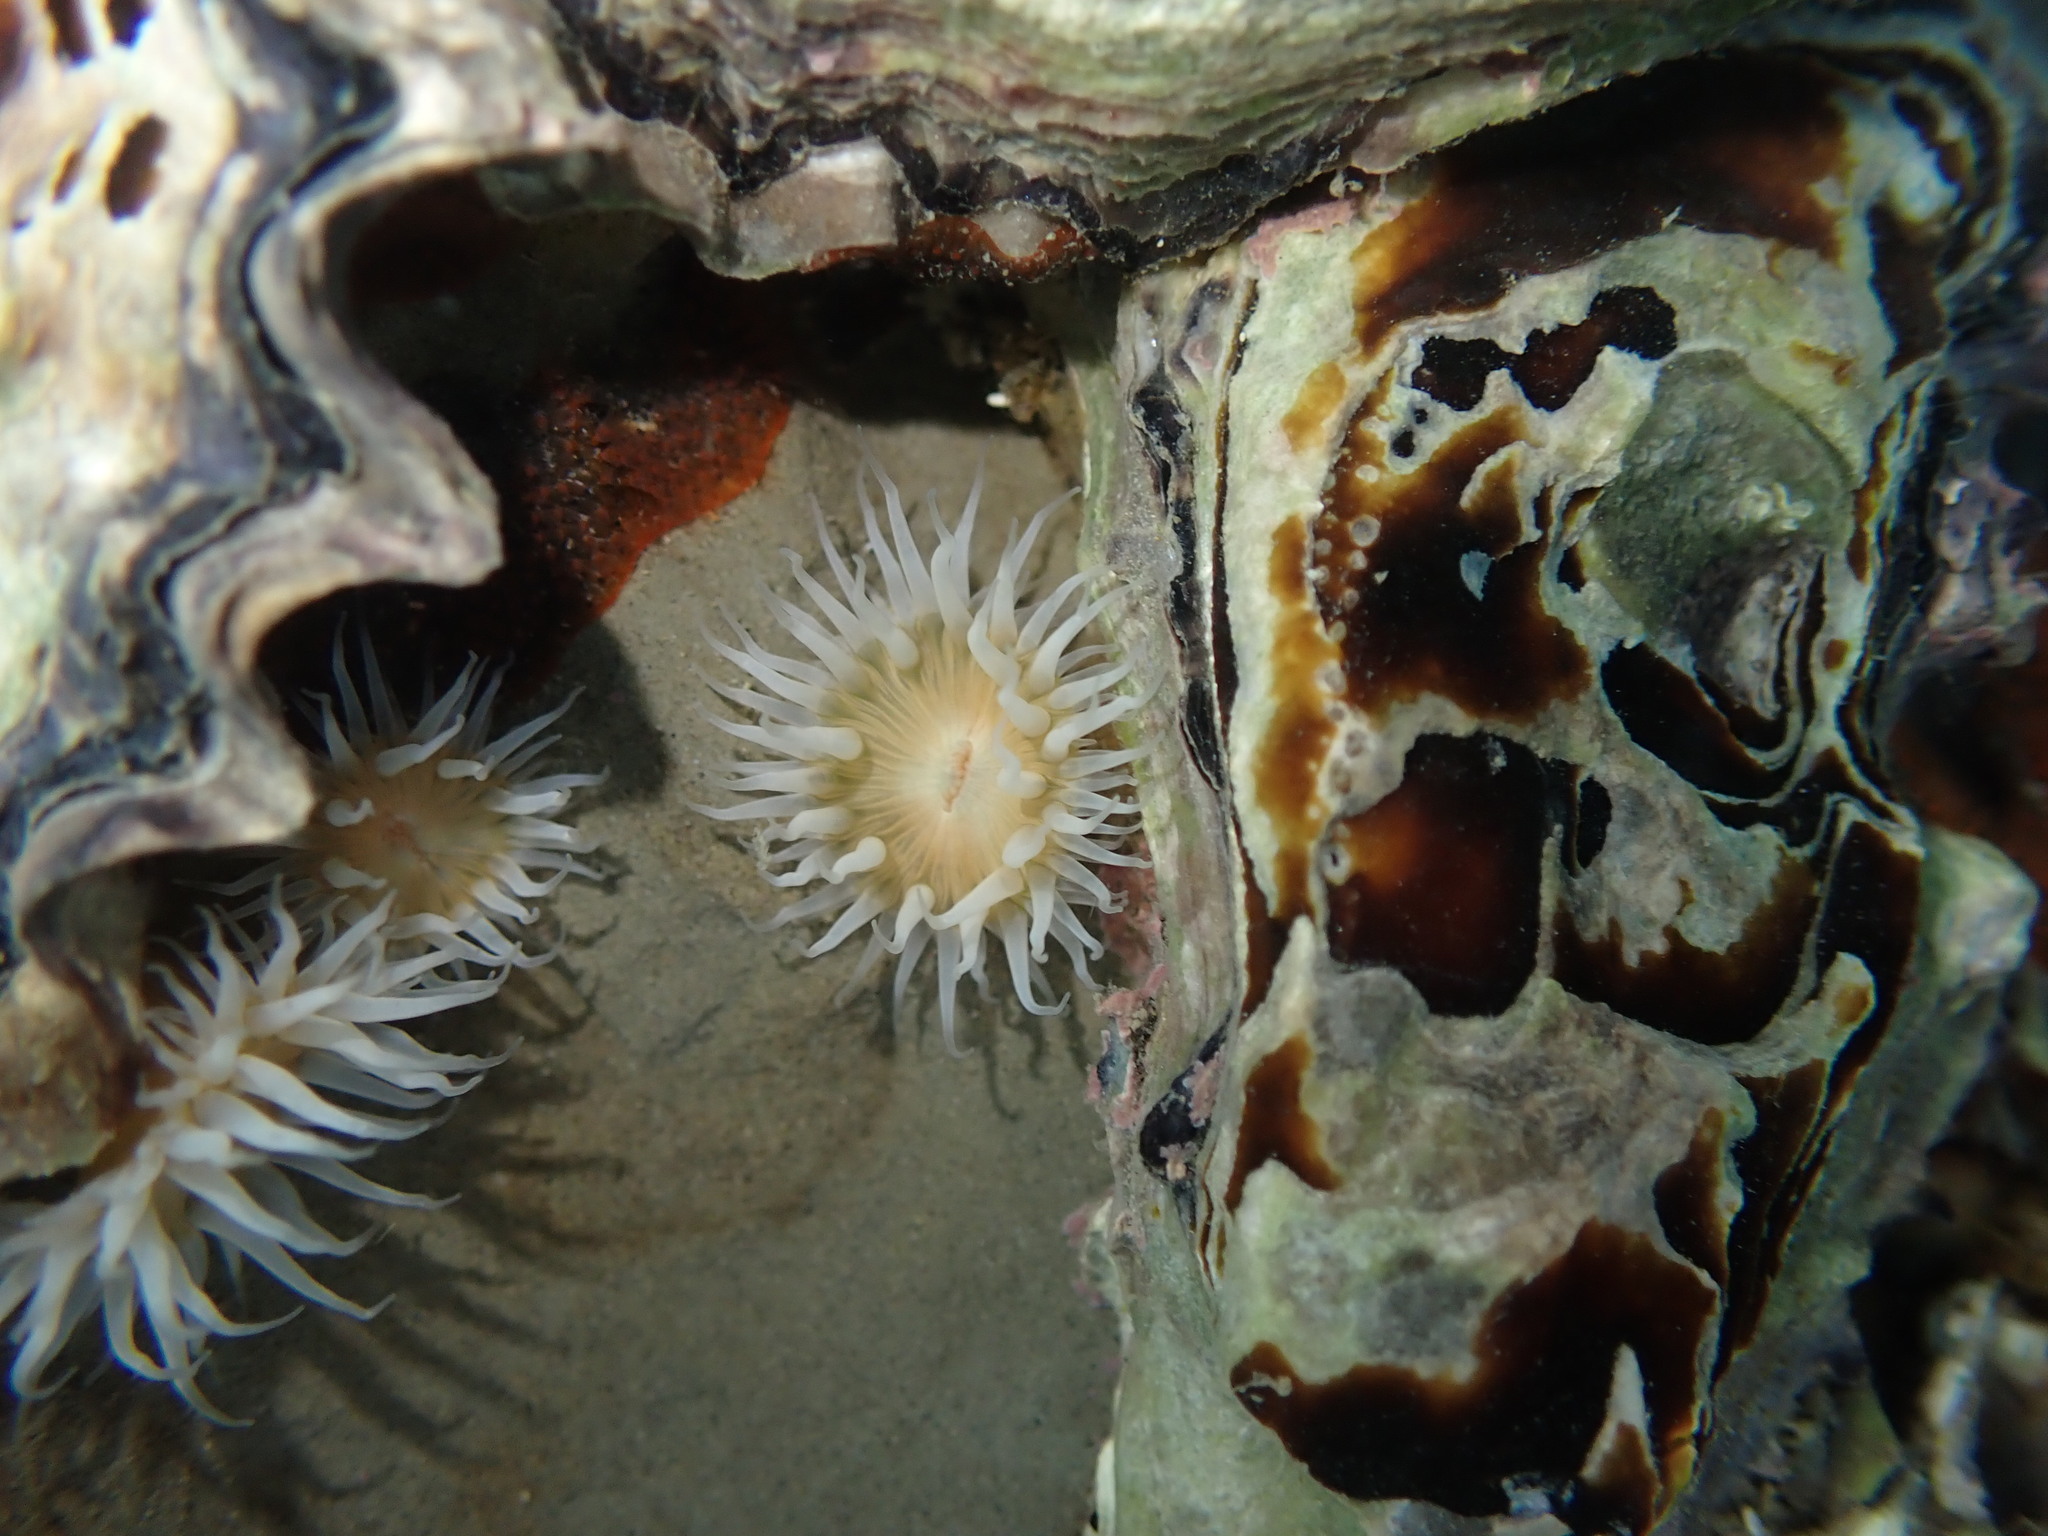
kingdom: Animalia
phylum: Cnidaria
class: Anthozoa
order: Actiniaria
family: Sagartiidae
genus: Anthothoe
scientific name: Anthothoe albocincta
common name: Orange striped anemone
